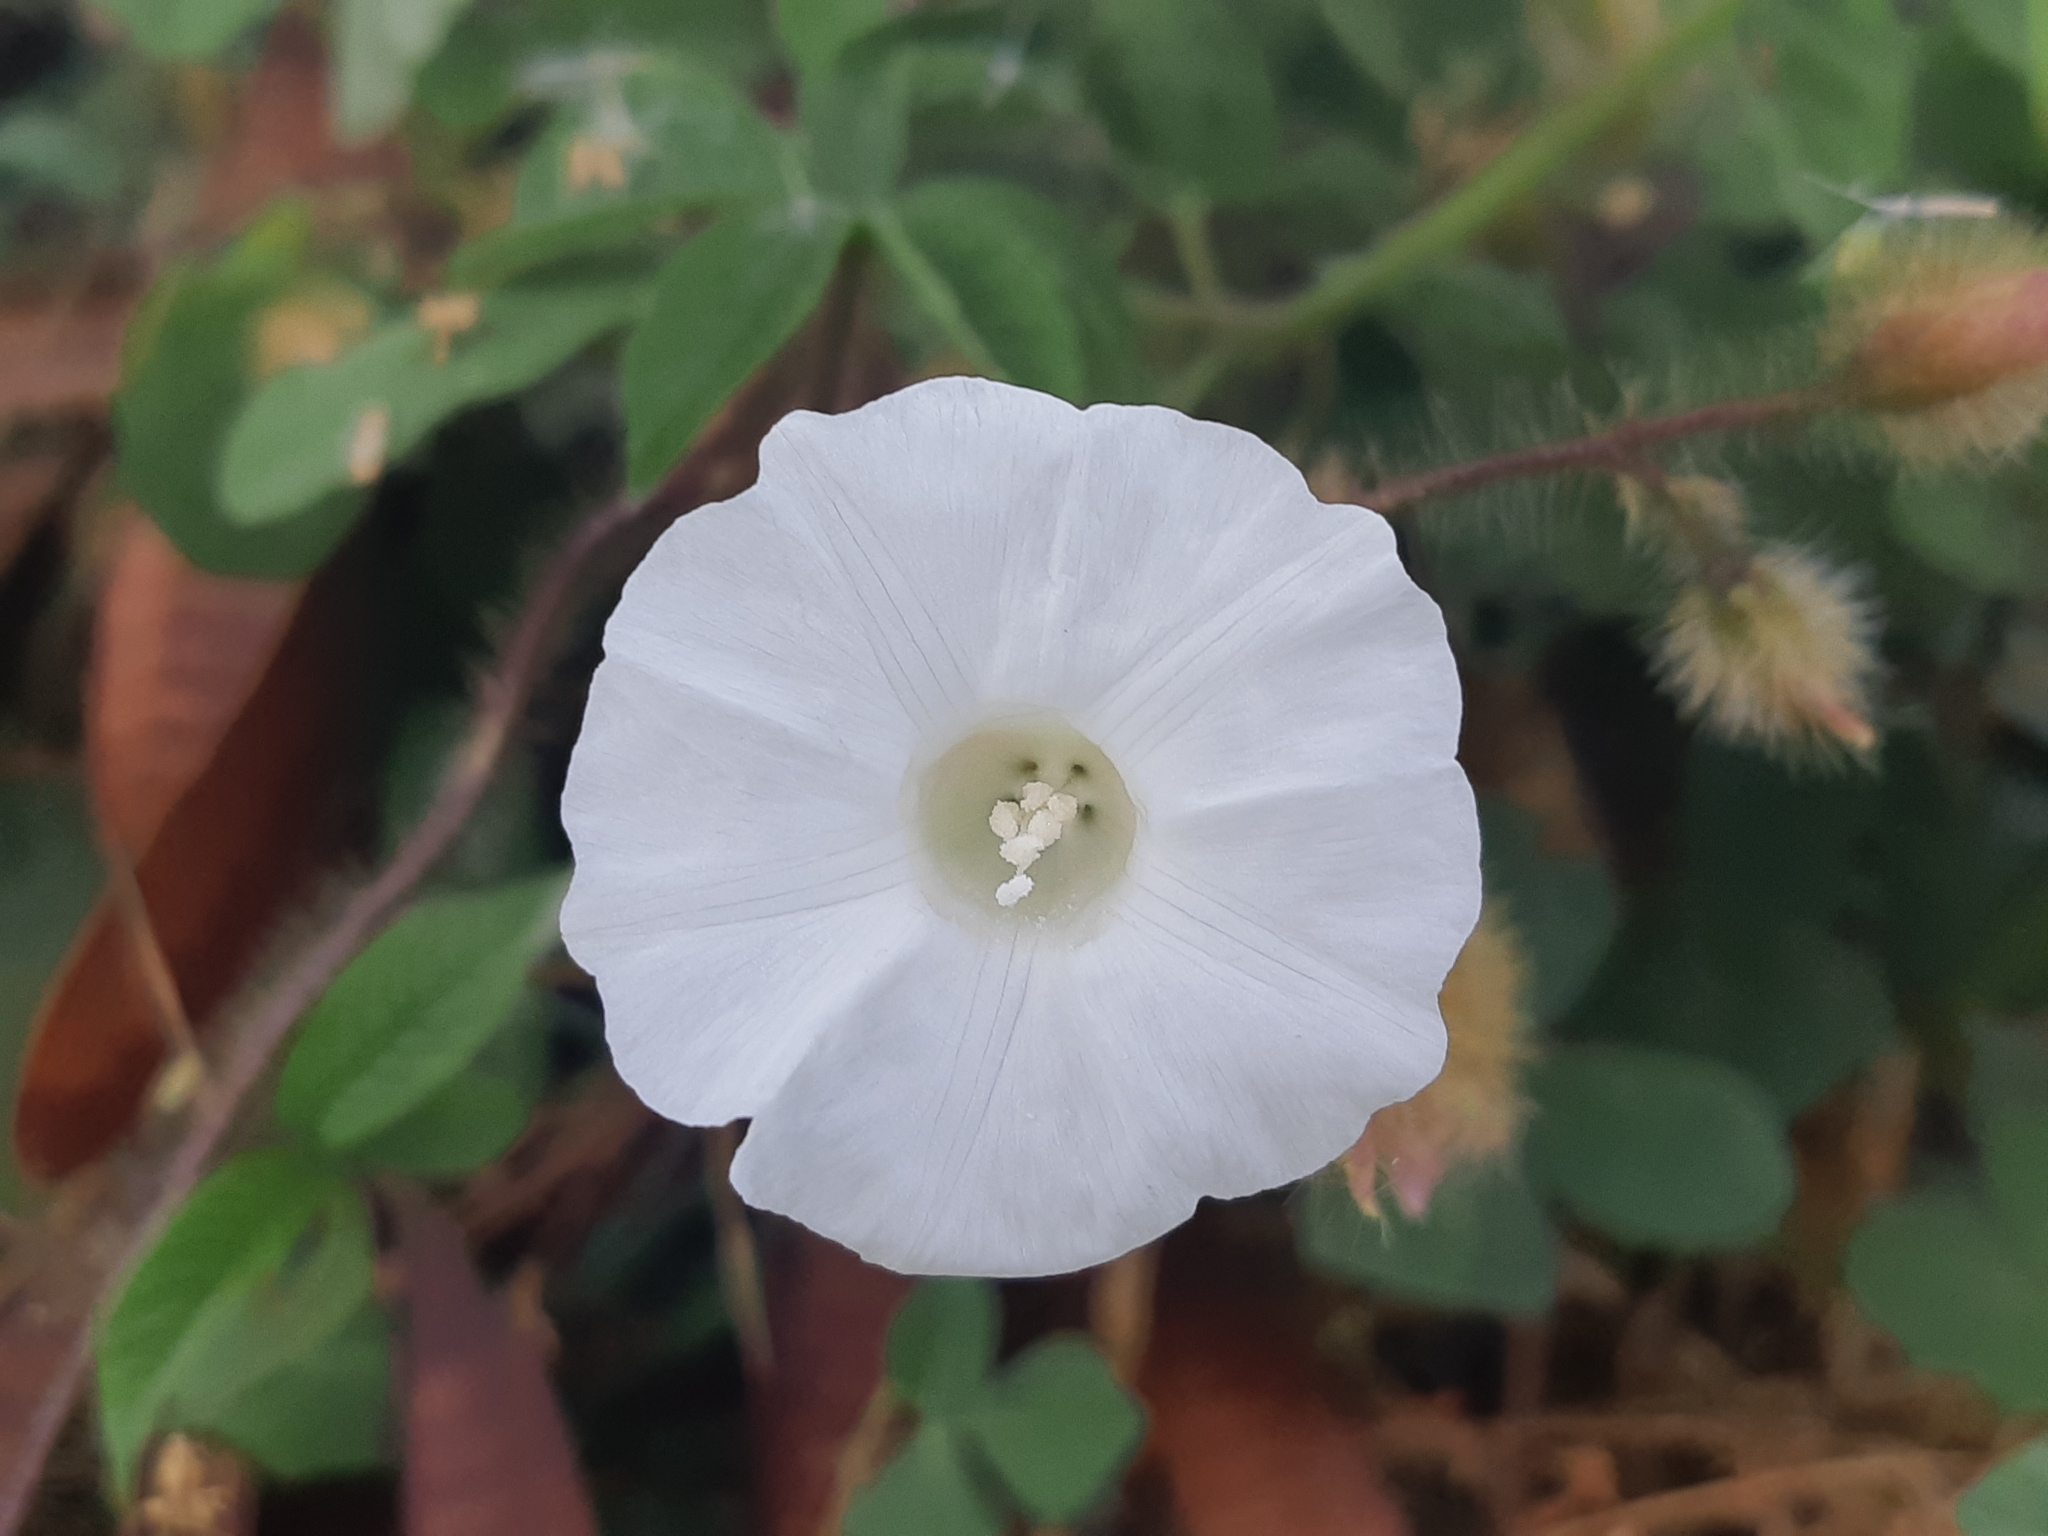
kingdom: Plantae
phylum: Tracheophyta
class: Magnoliopsida
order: Solanales
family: Convolvulaceae
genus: Distimake
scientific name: Distimake aegyptius
